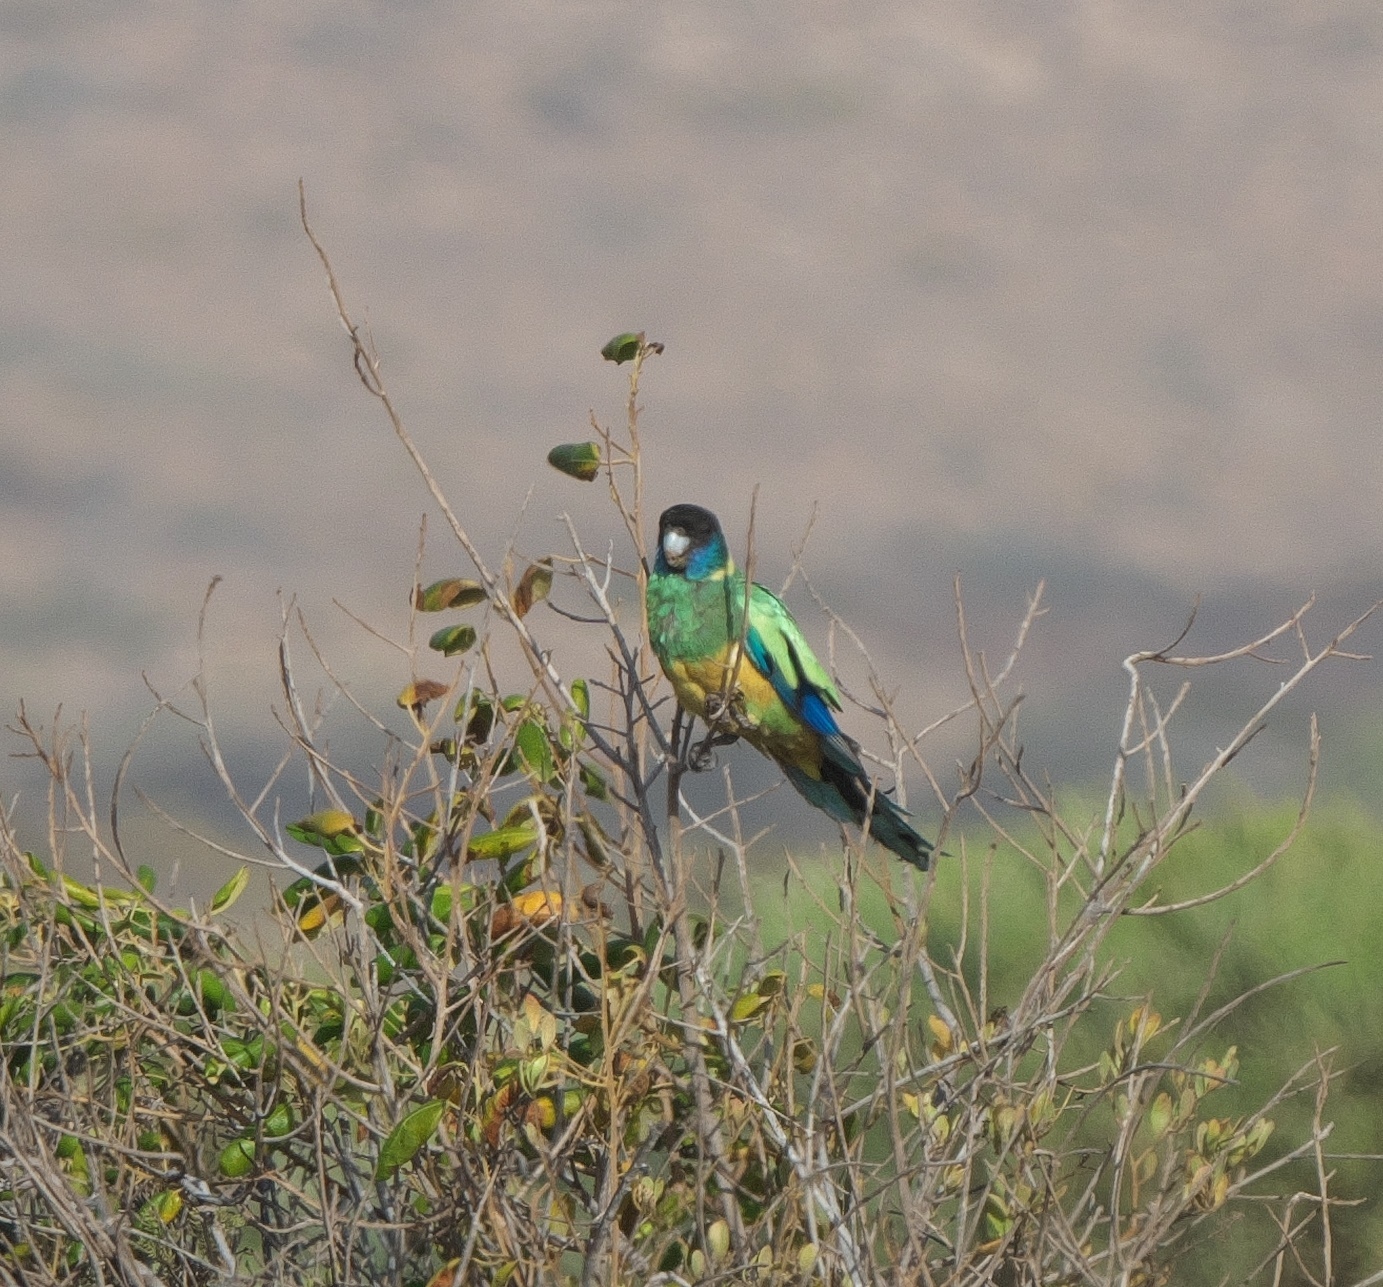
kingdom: Animalia
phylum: Chordata
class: Aves
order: Psittaciformes
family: Psittacidae
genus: Barnardius
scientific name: Barnardius zonarius
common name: Australian ringneck
